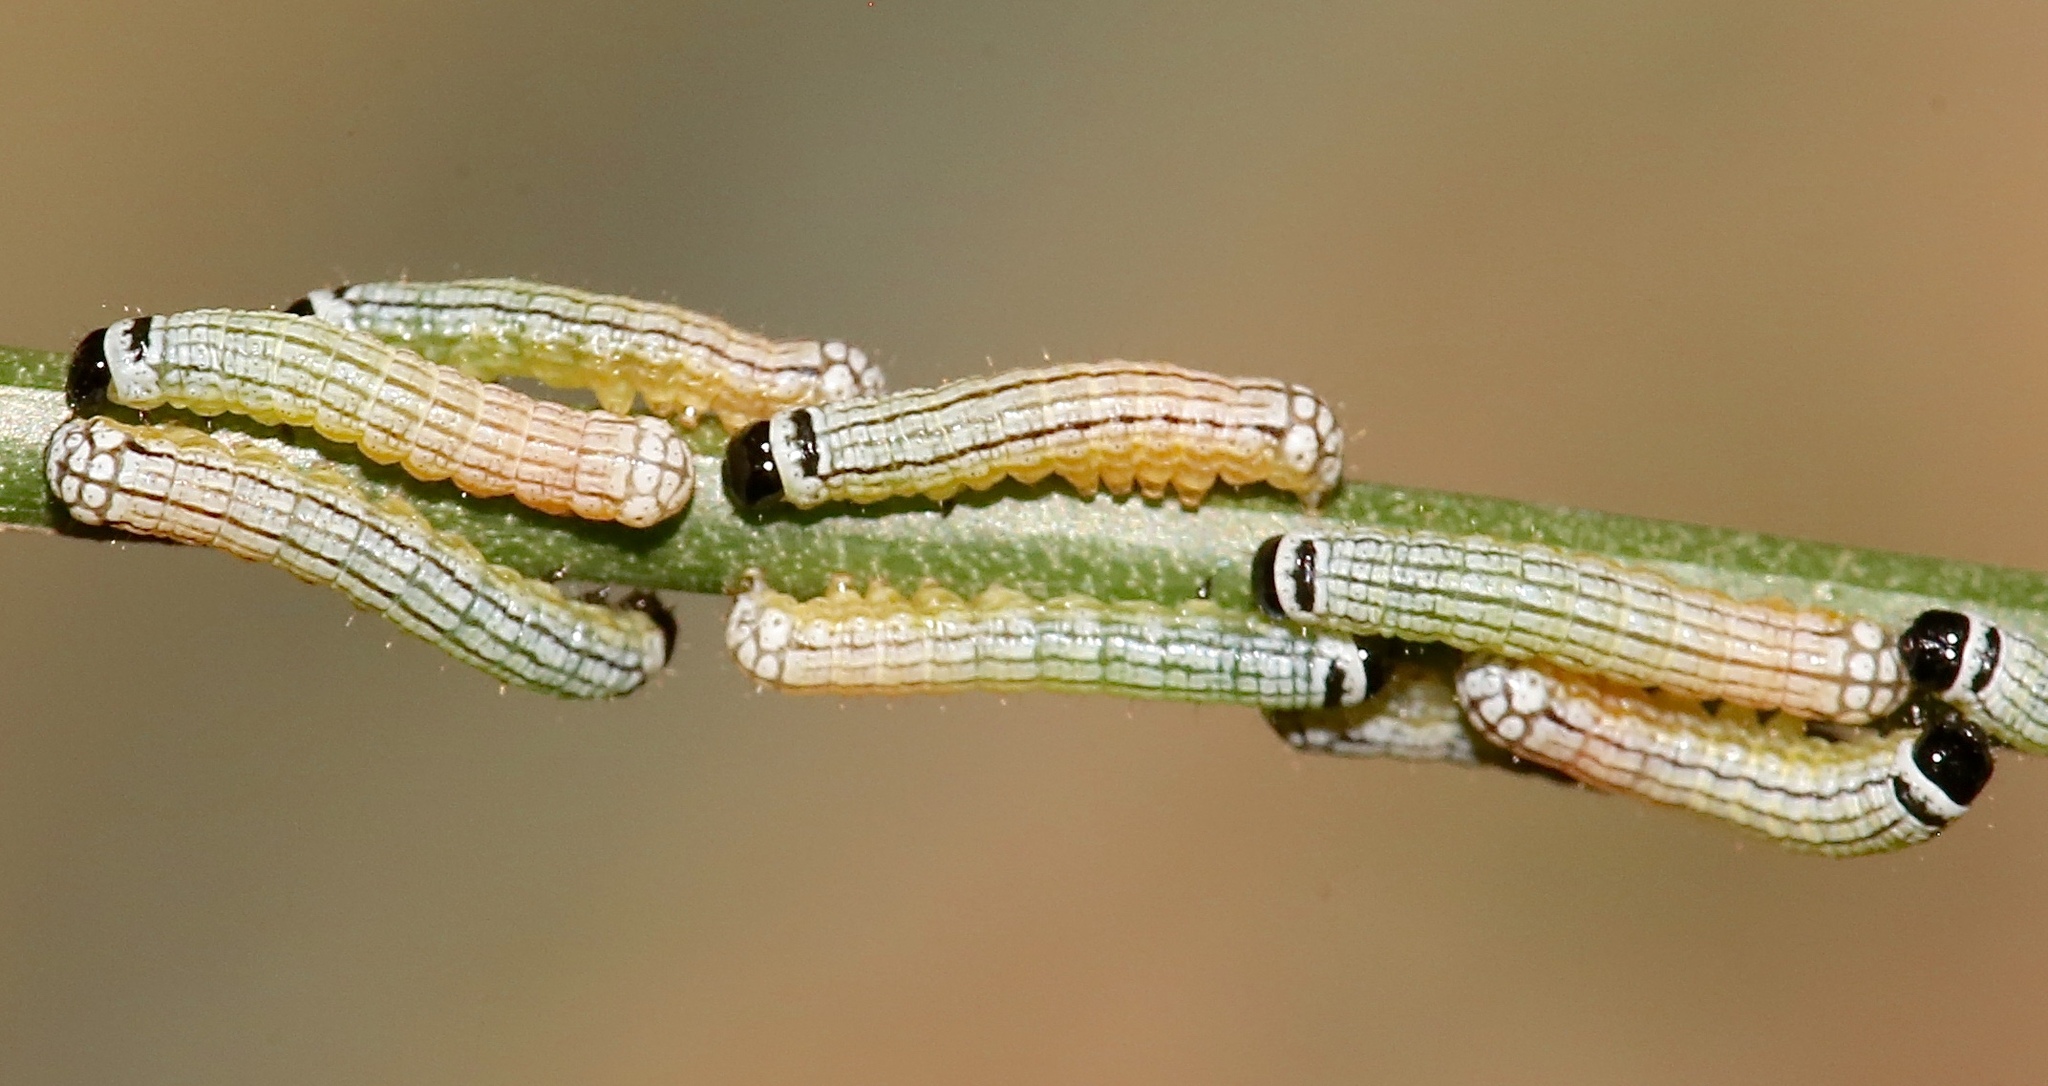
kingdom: Animalia
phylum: Arthropoda
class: Insecta
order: Lepidoptera
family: Noctuidae
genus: Phosphila
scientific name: Phosphila turbulenta
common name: Turbulent phosphila moth
